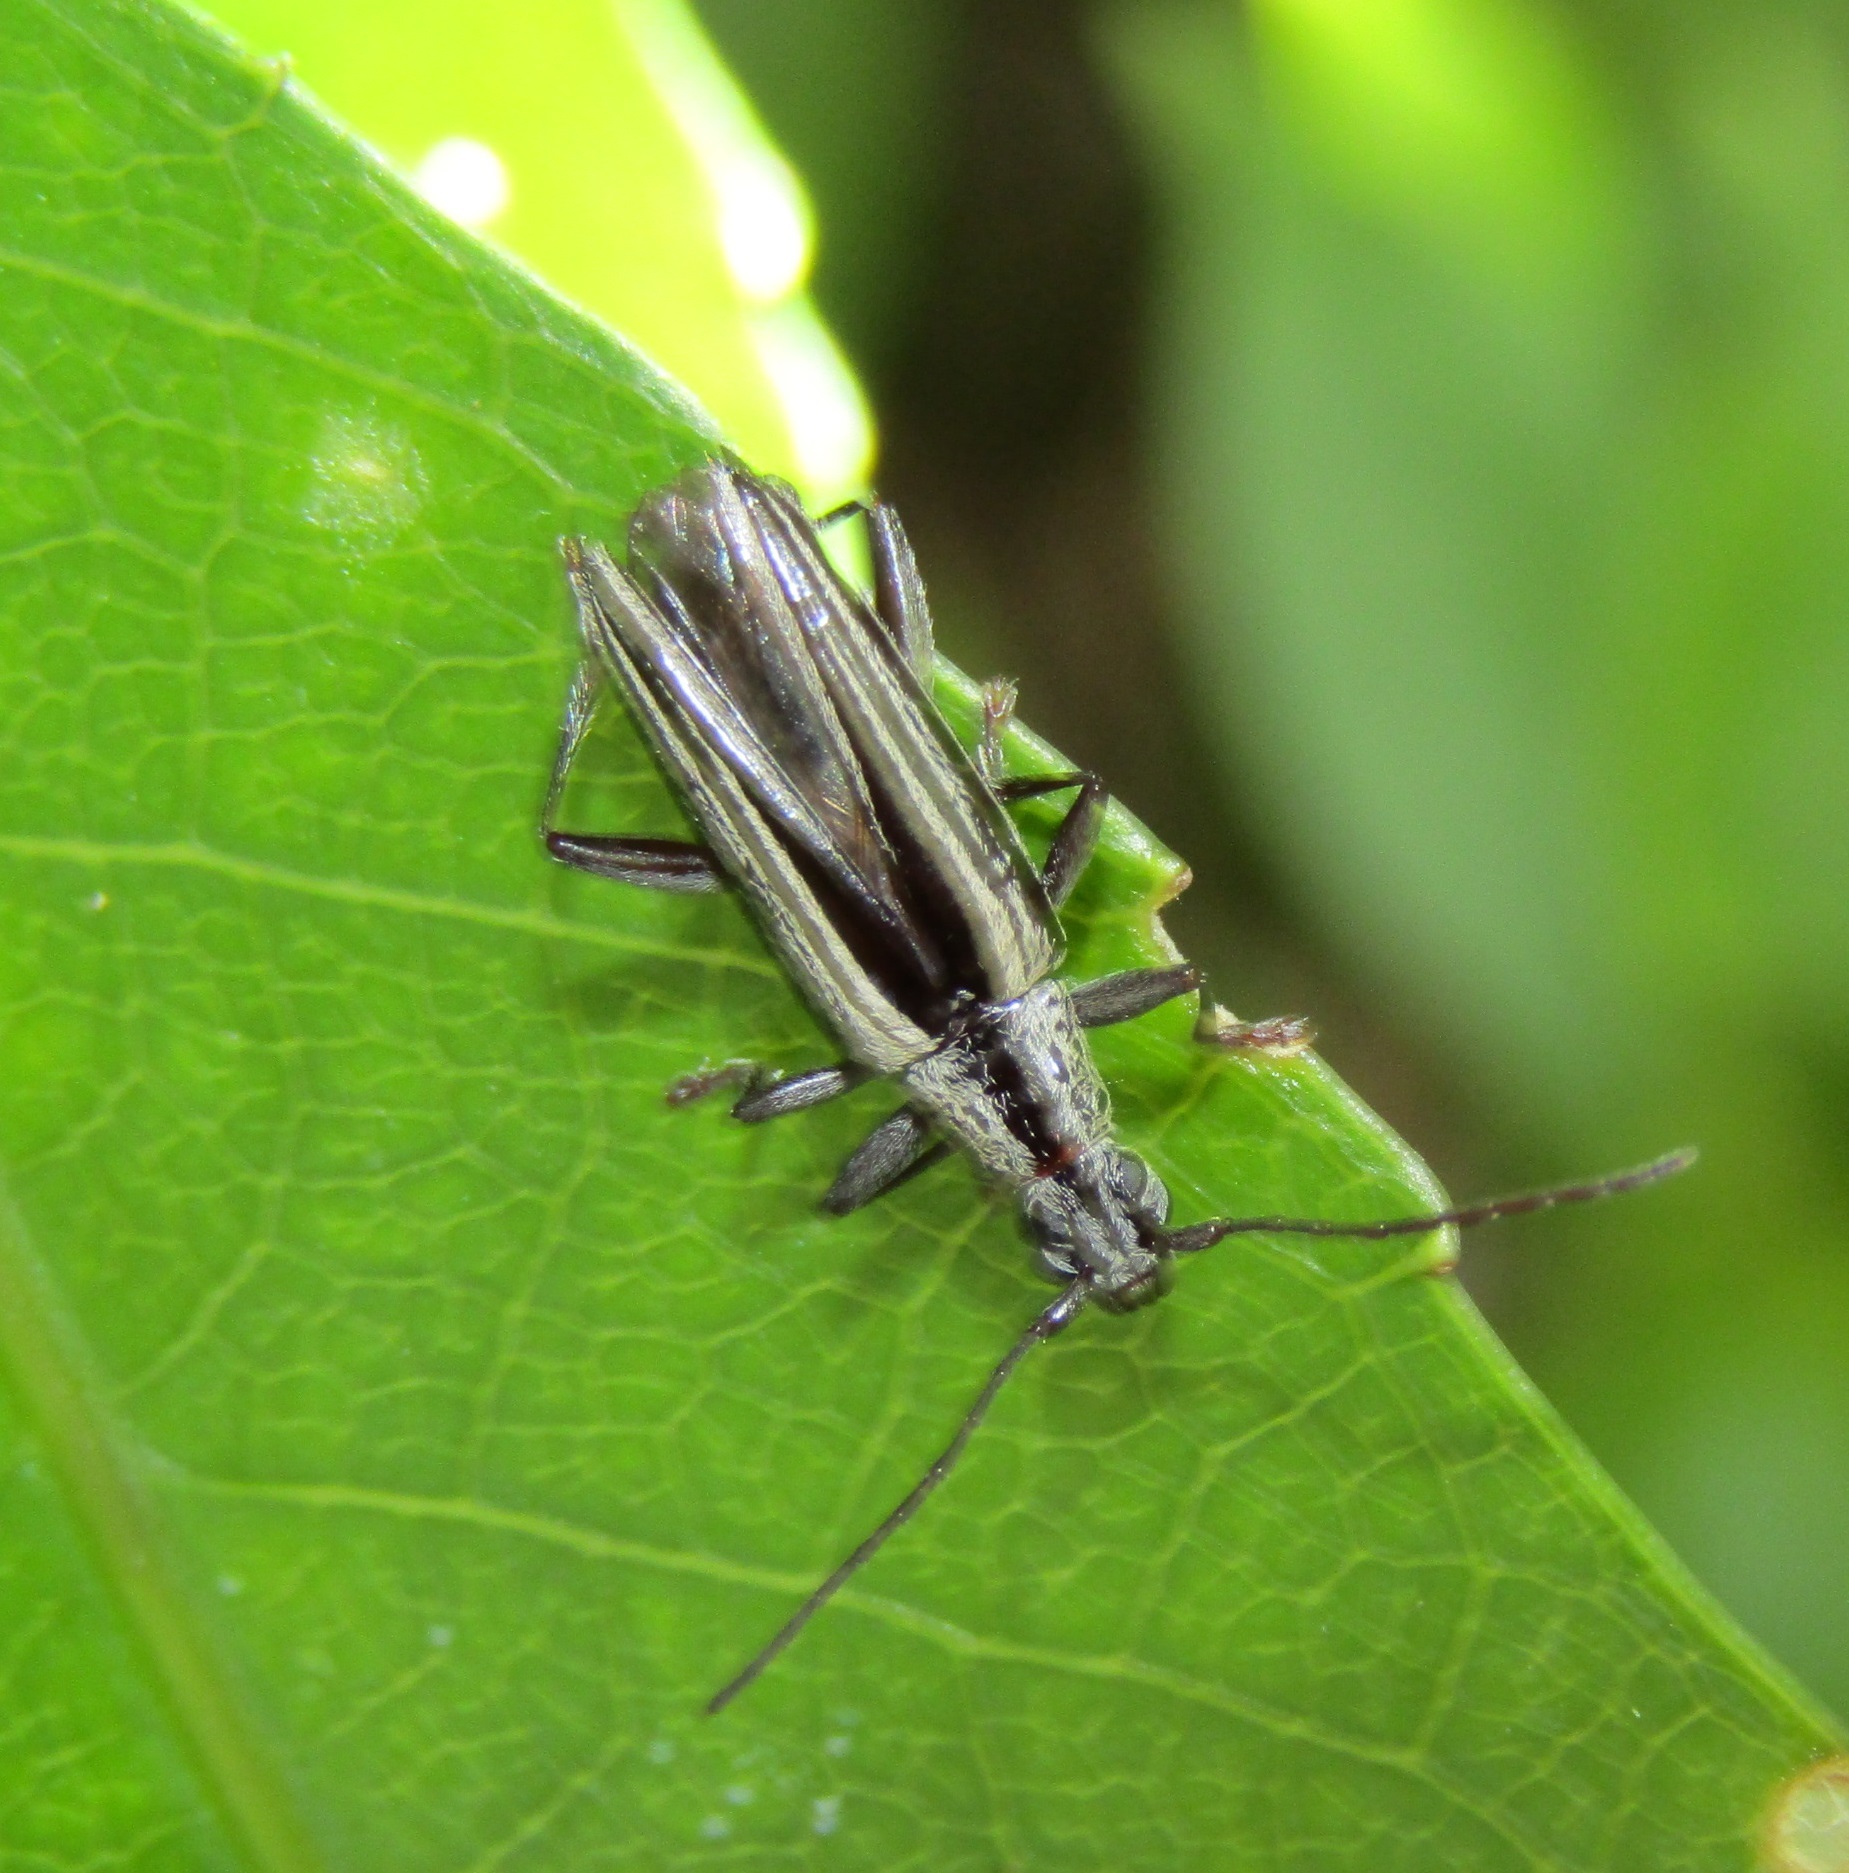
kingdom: Animalia
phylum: Arthropoda
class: Insecta
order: Coleoptera
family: Cerambycidae
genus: Coptomma
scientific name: Coptomma sulcatum
